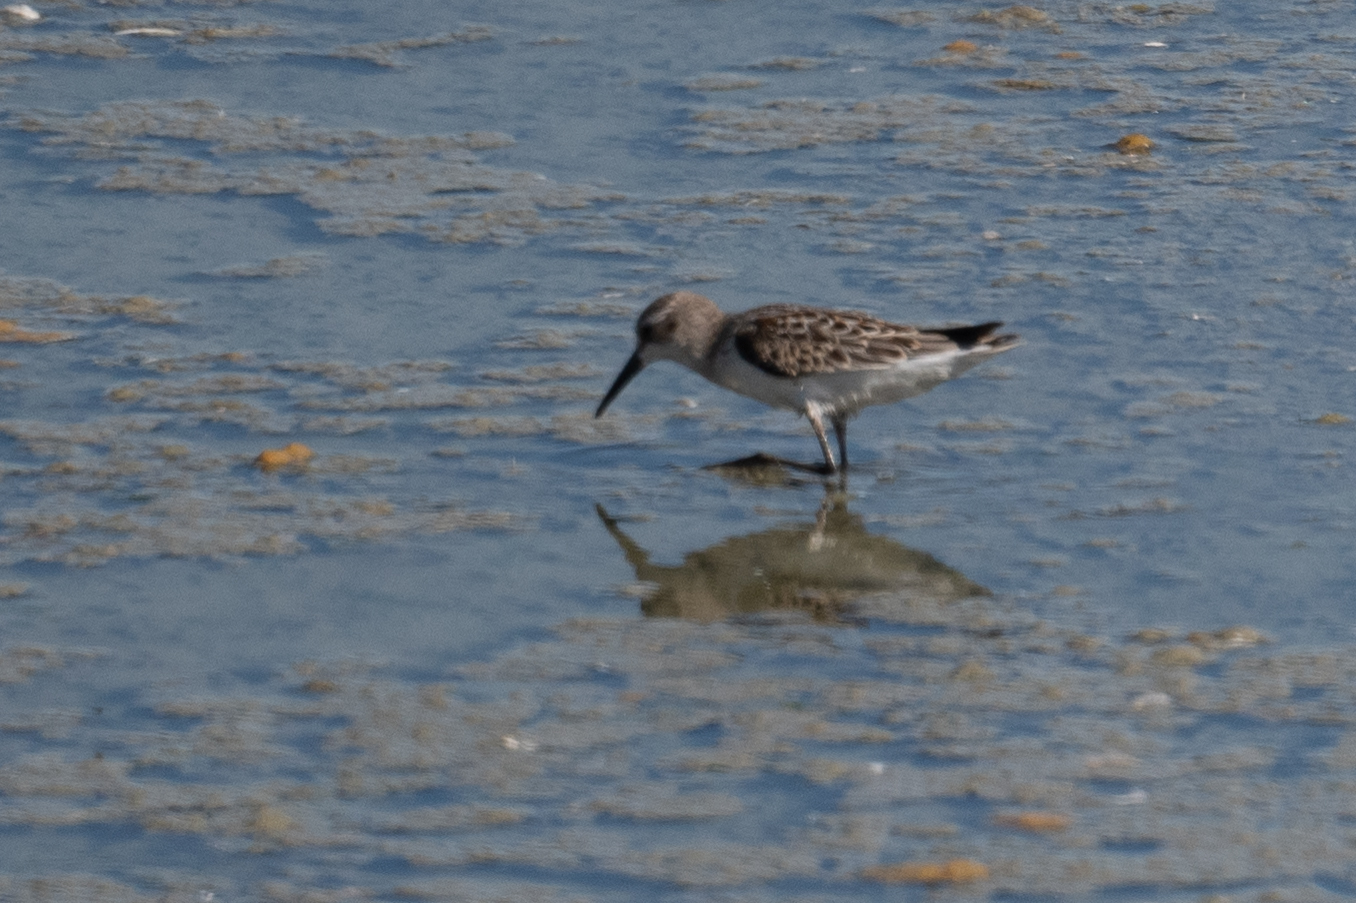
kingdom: Animalia
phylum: Chordata
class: Aves
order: Charadriiformes
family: Scolopacidae
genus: Calidris
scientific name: Calidris mauri
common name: Western sandpiper
